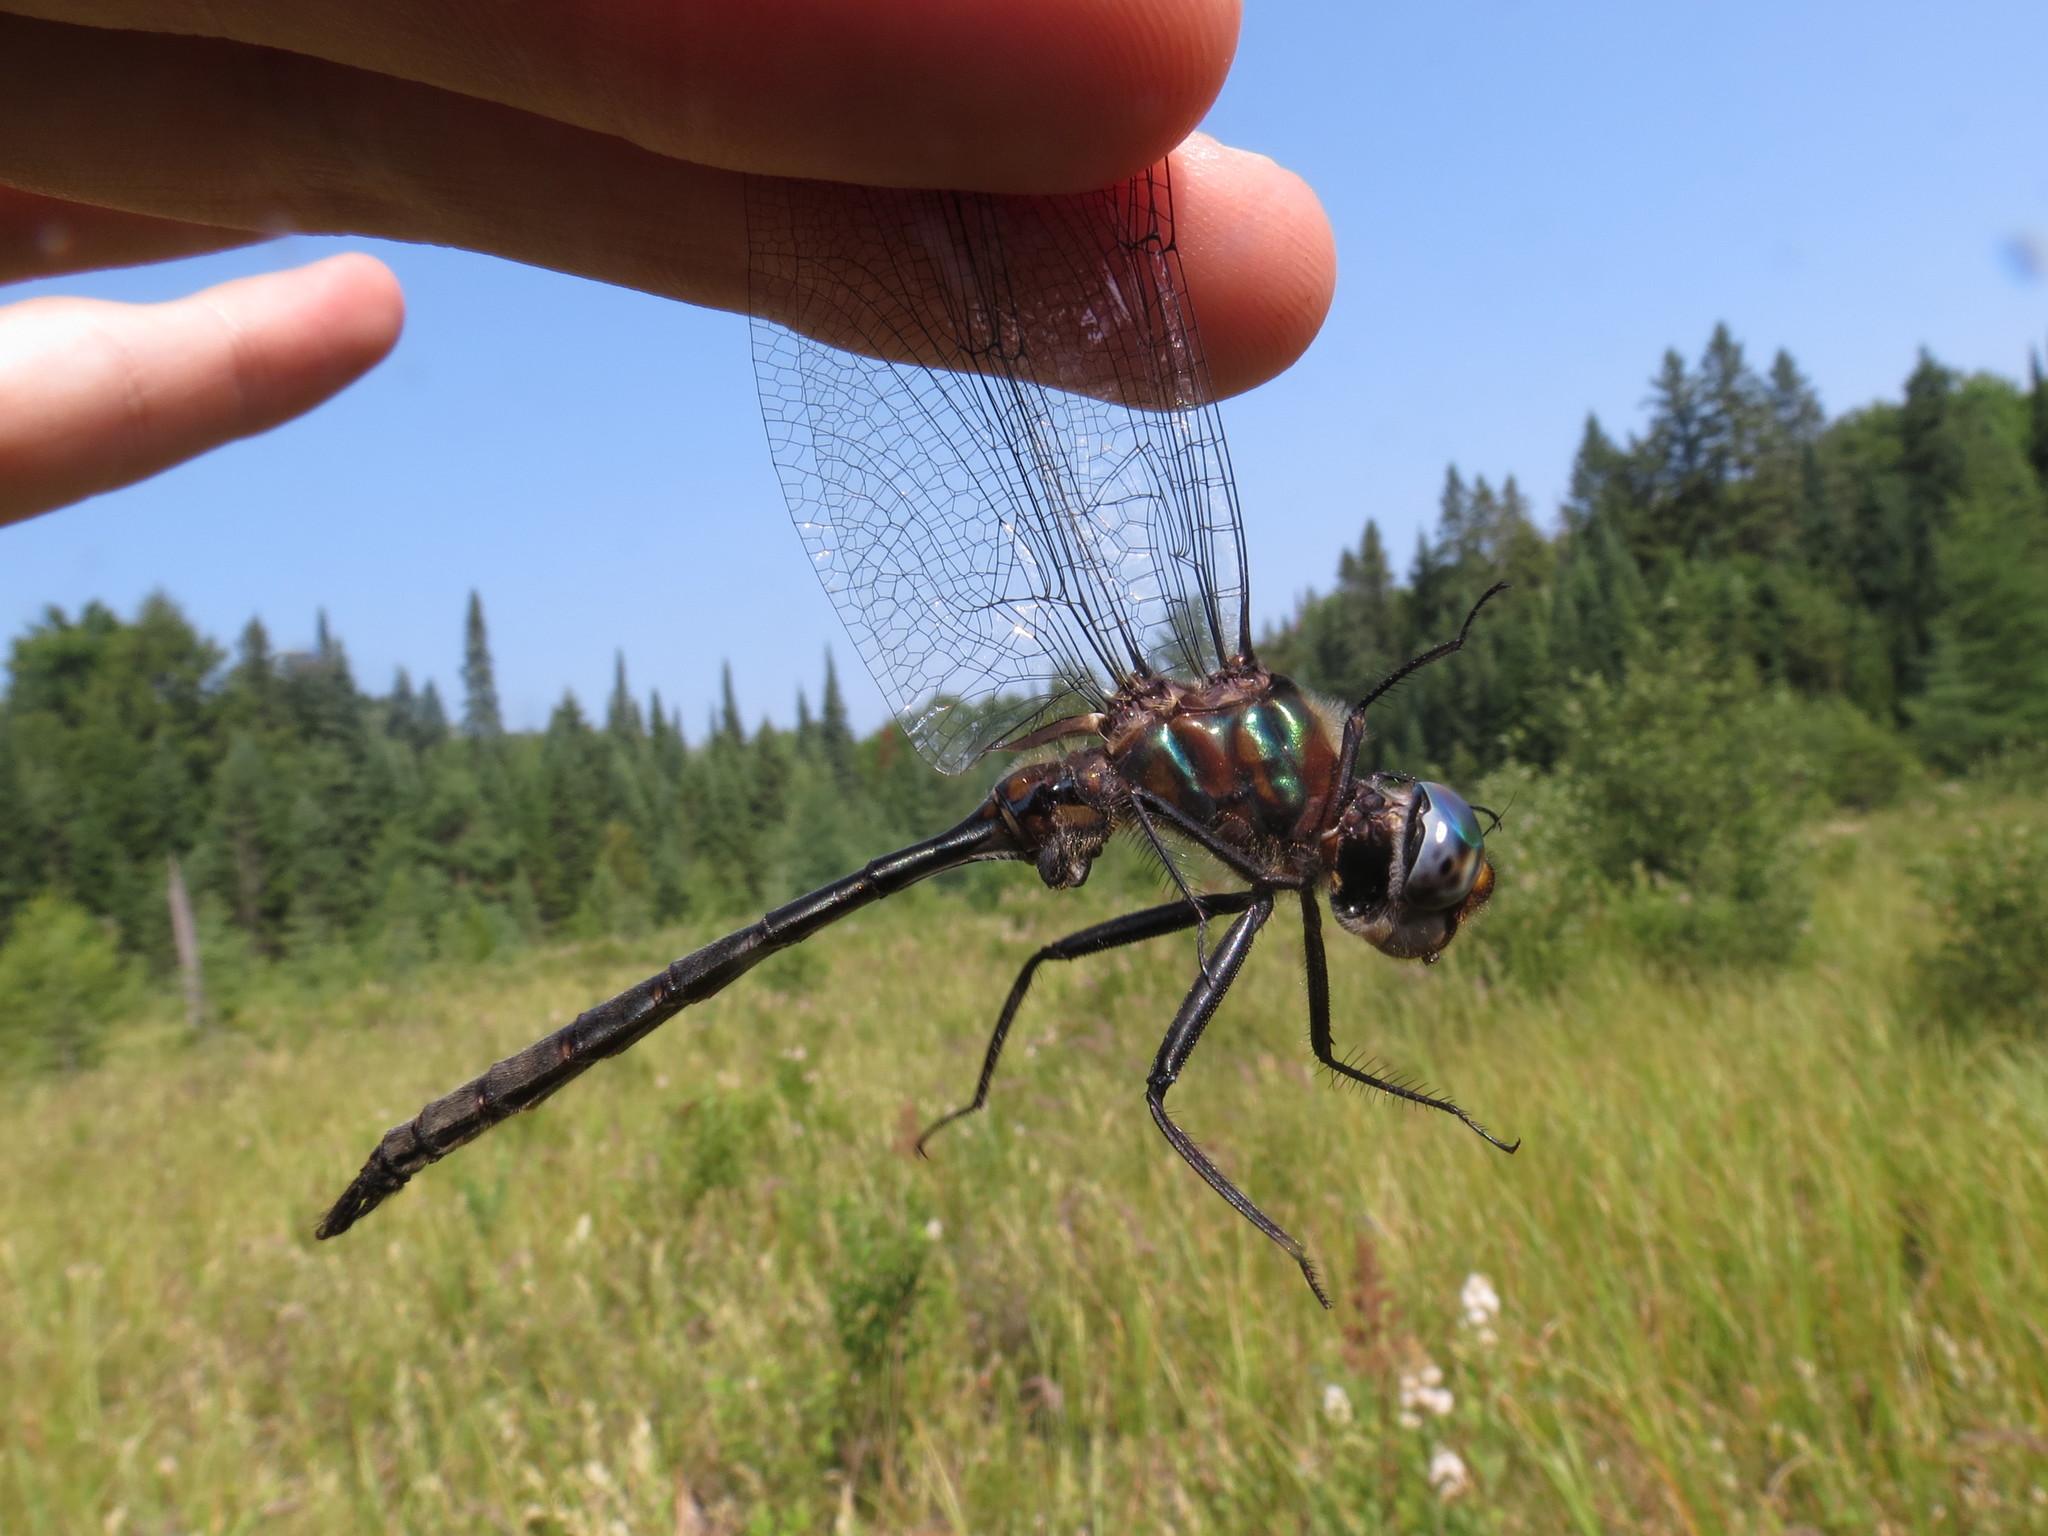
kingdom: Animalia
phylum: Arthropoda
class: Insecta
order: Odonata
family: Corduliidae
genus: Somatochlora
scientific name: Somatochlora williamsoni
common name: Williamson's emerald
